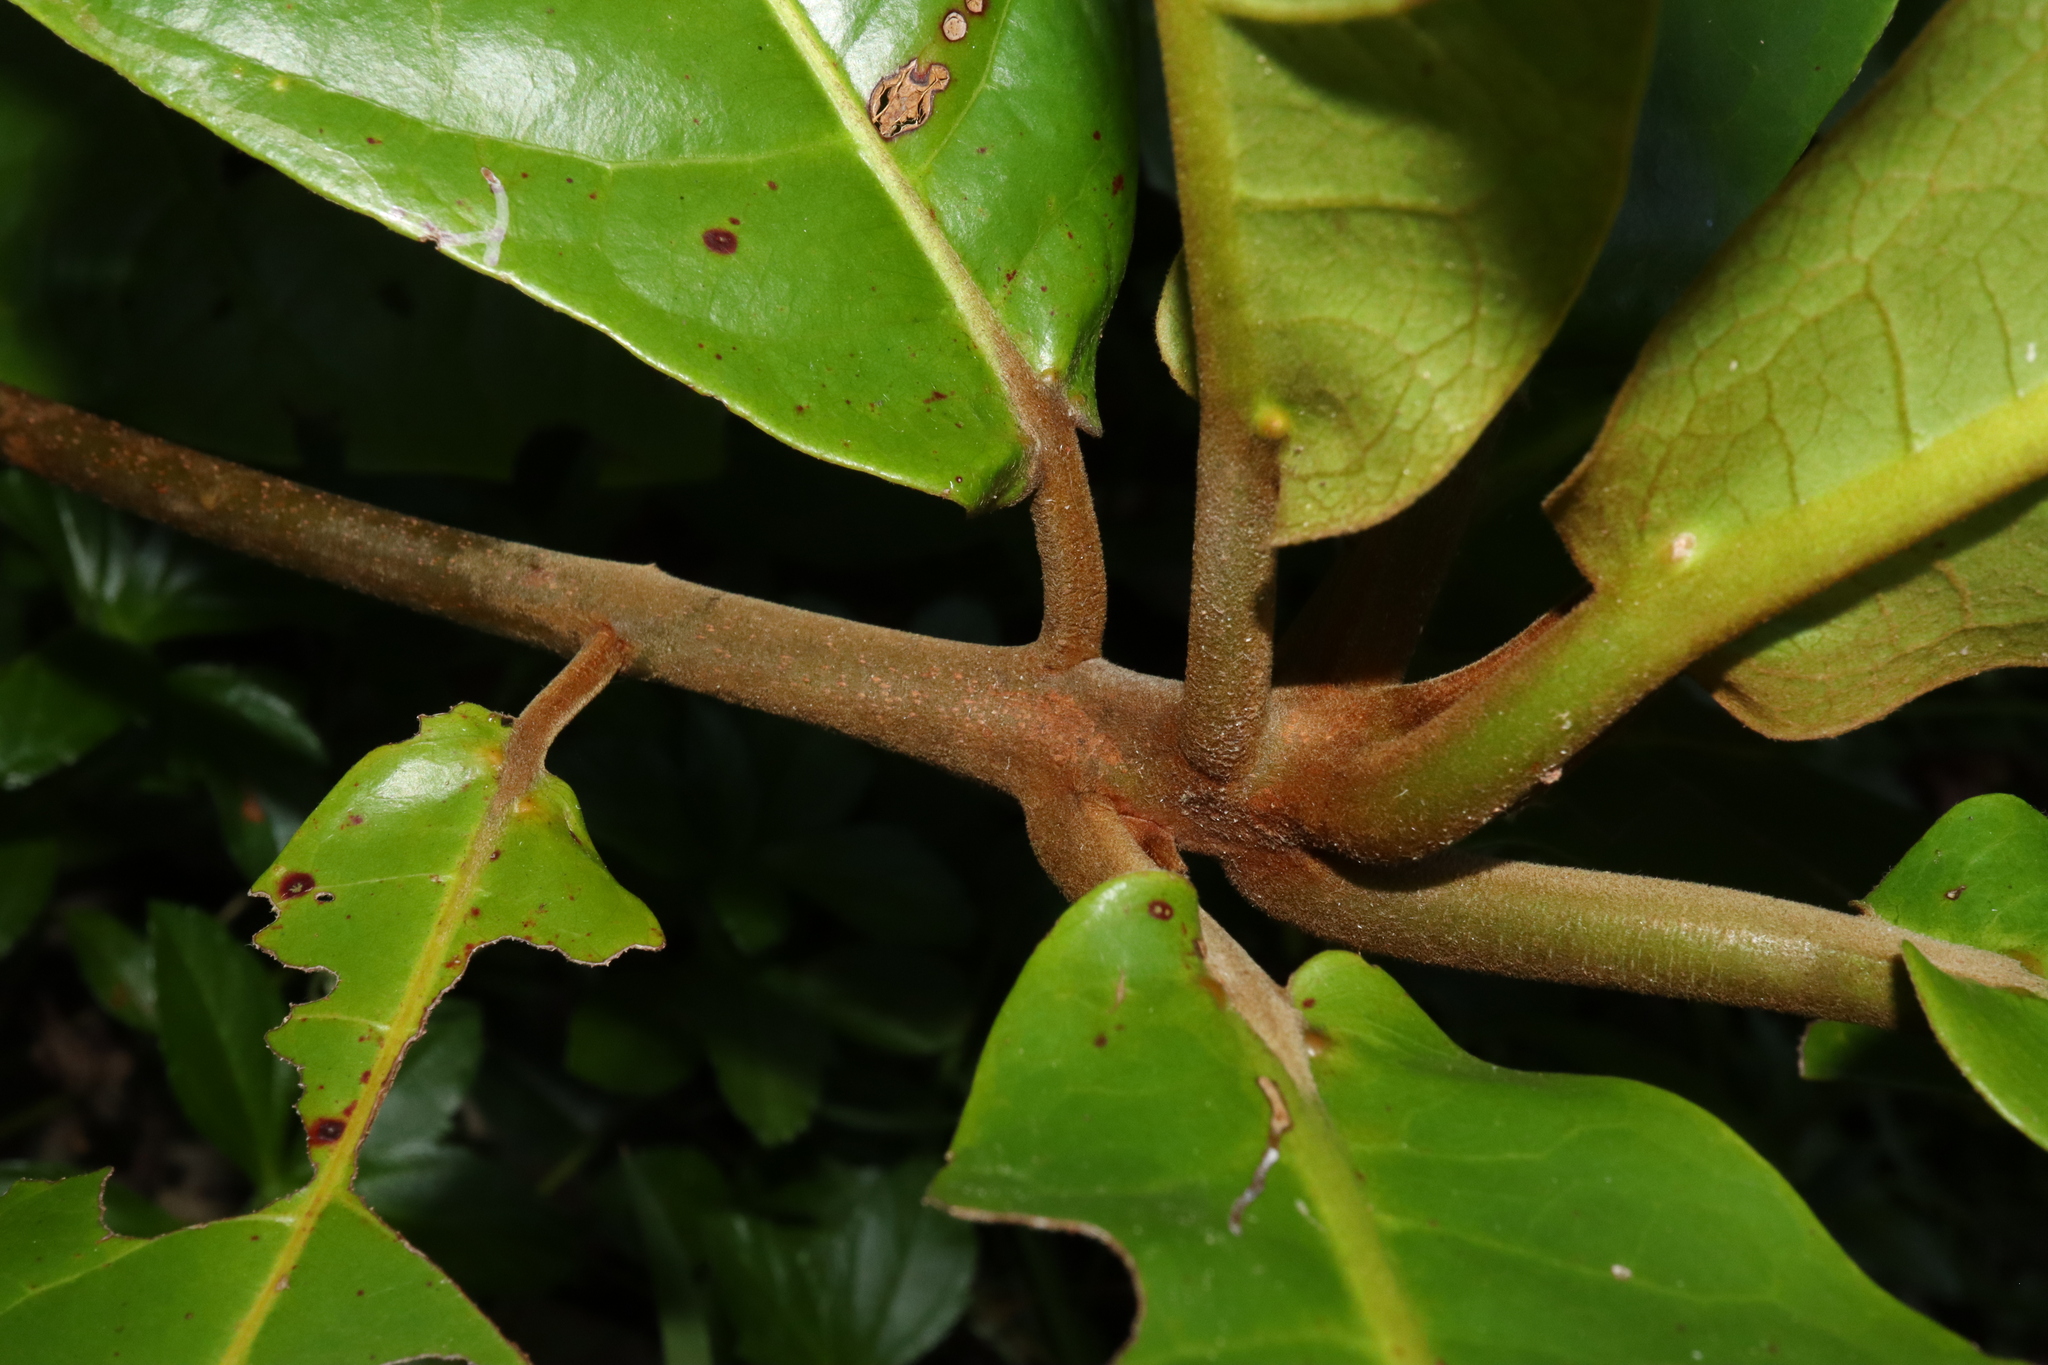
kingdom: Plantae
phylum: Tracheophyta
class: Magnoliopsida
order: Myrtales
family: Combretaceae
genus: Terminalia
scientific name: Terminalia catappa
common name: Tropical almond
